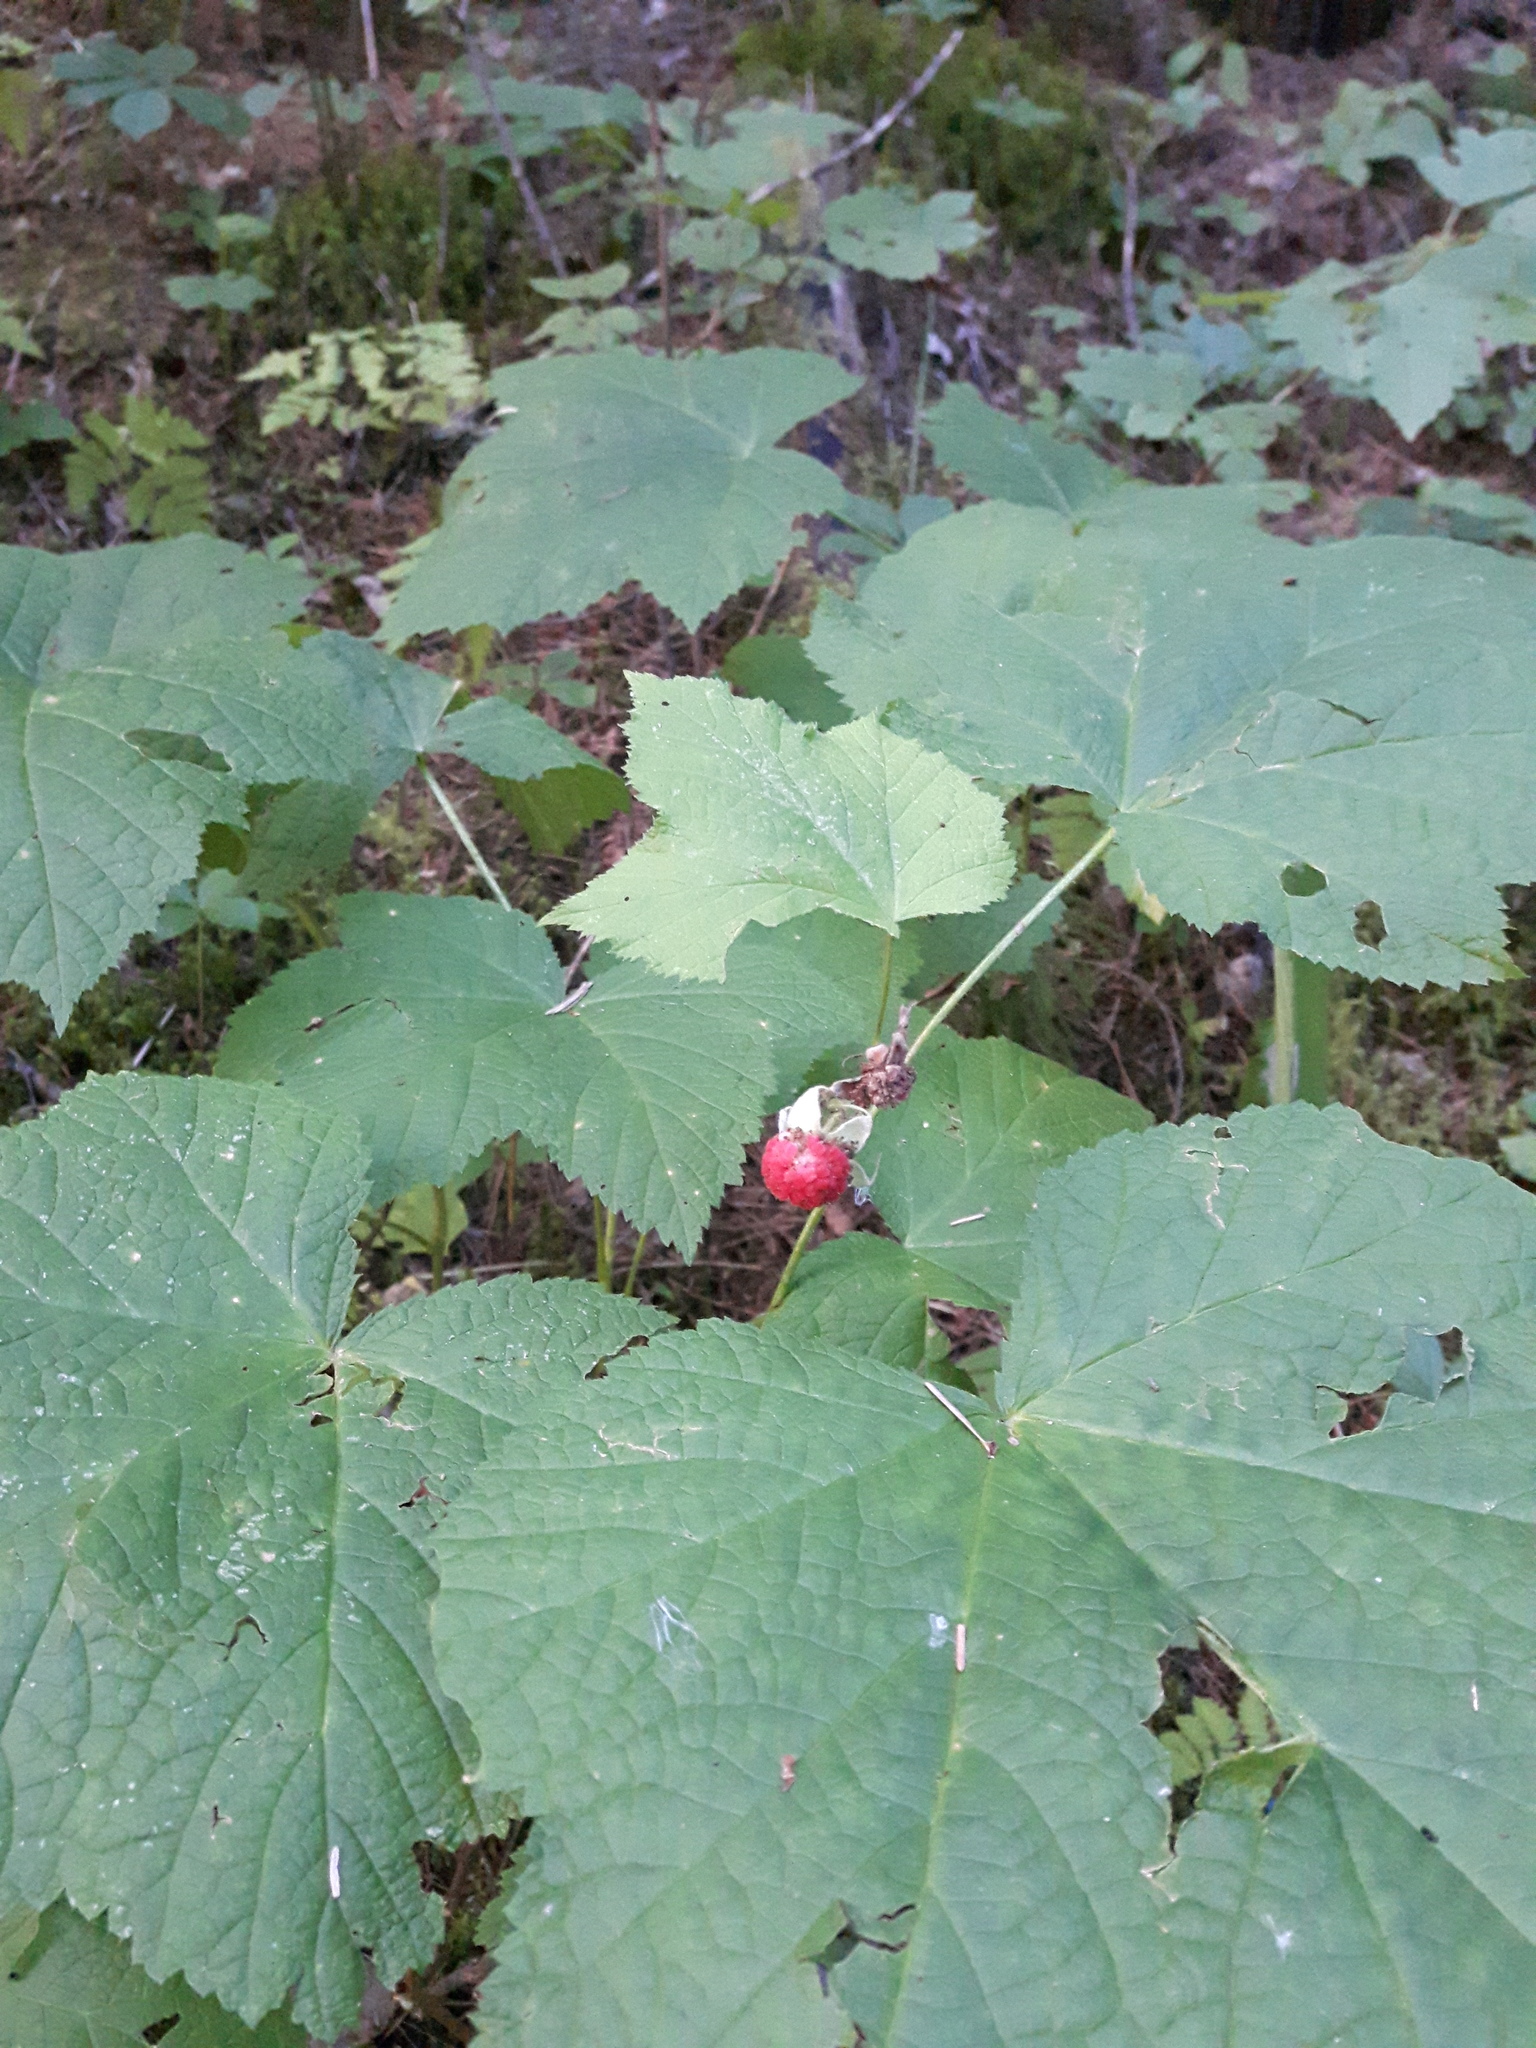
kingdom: Plantae
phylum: Tracheophyta
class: Magnoliopsida
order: Rosales
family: Rosaceae
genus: Rubus
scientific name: Rubus parviflorus
